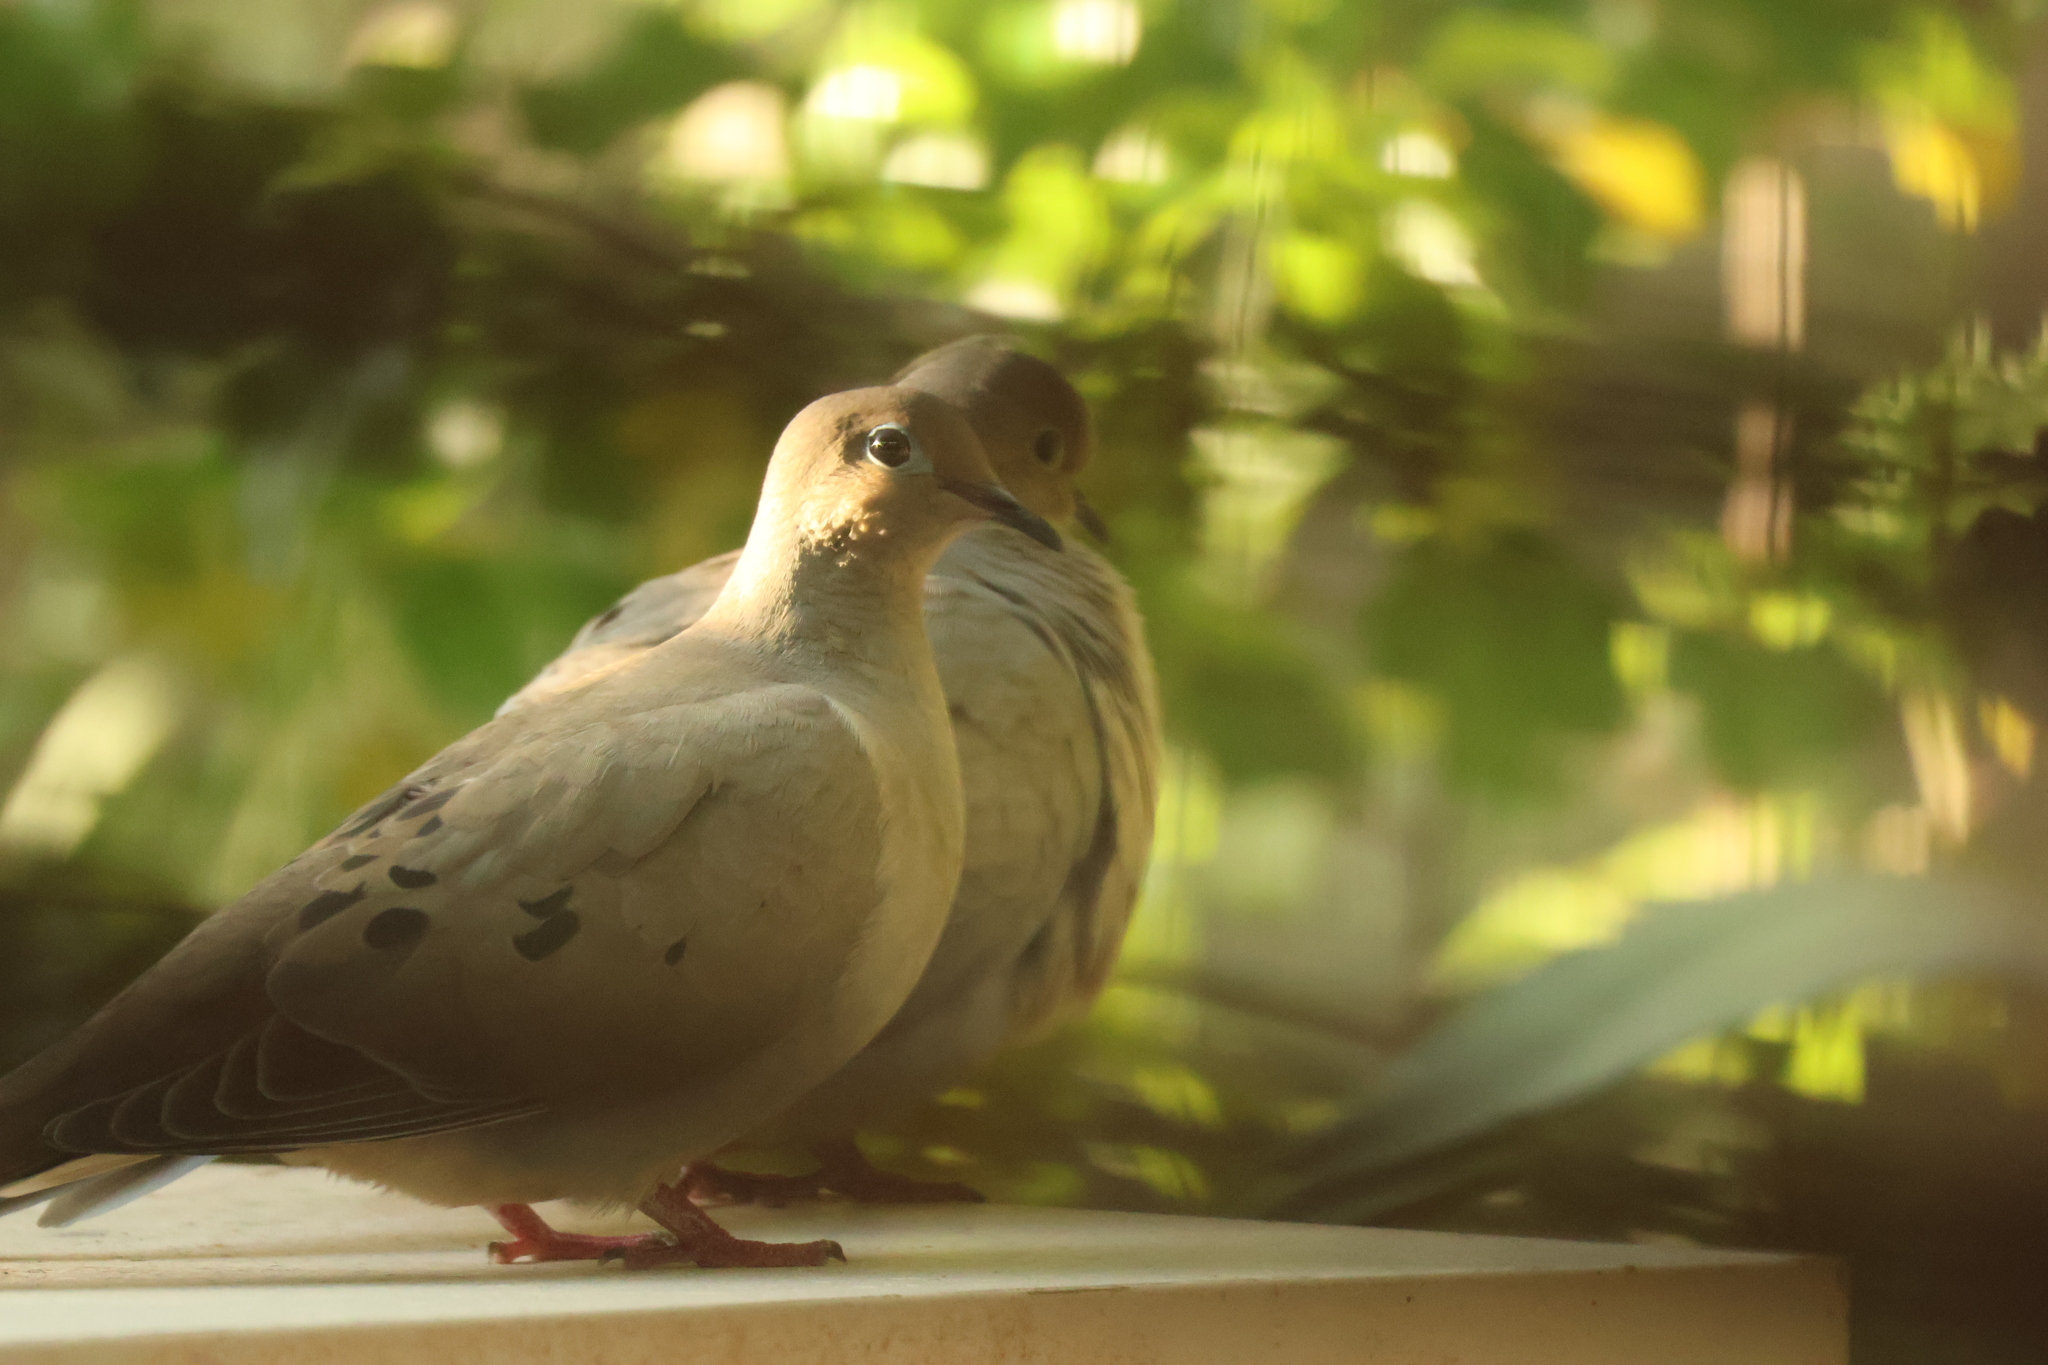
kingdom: Animalia
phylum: Chordata
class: Aves
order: Columbiformes
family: Columbidae
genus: Zenaida
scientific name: Zenaida macroura
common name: Mourning dove
